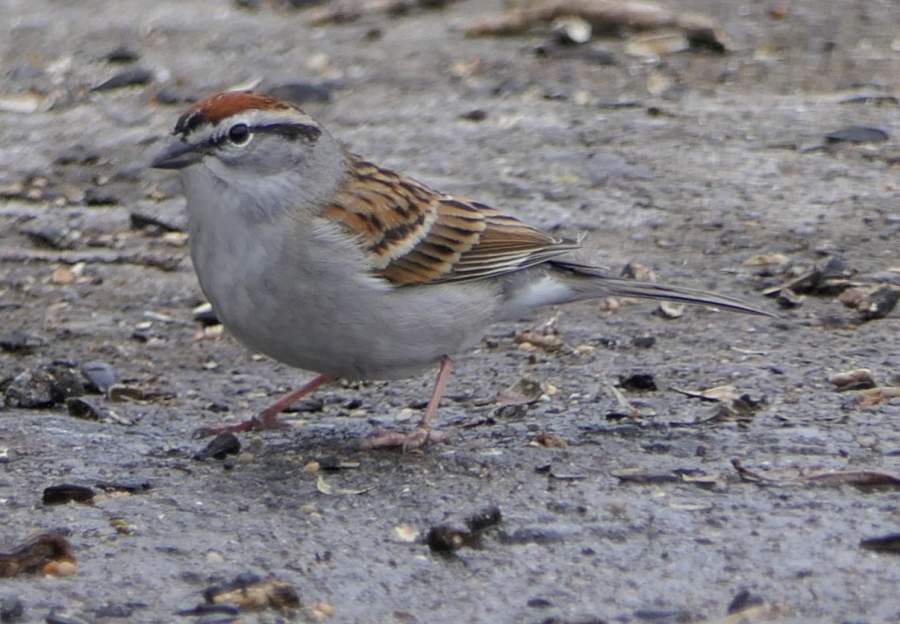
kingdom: Animalia
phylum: Chordata
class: Aves
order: Passeriformes
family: Passerellidae
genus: Spizella
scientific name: Spizella passerina
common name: Chipping sparrow
